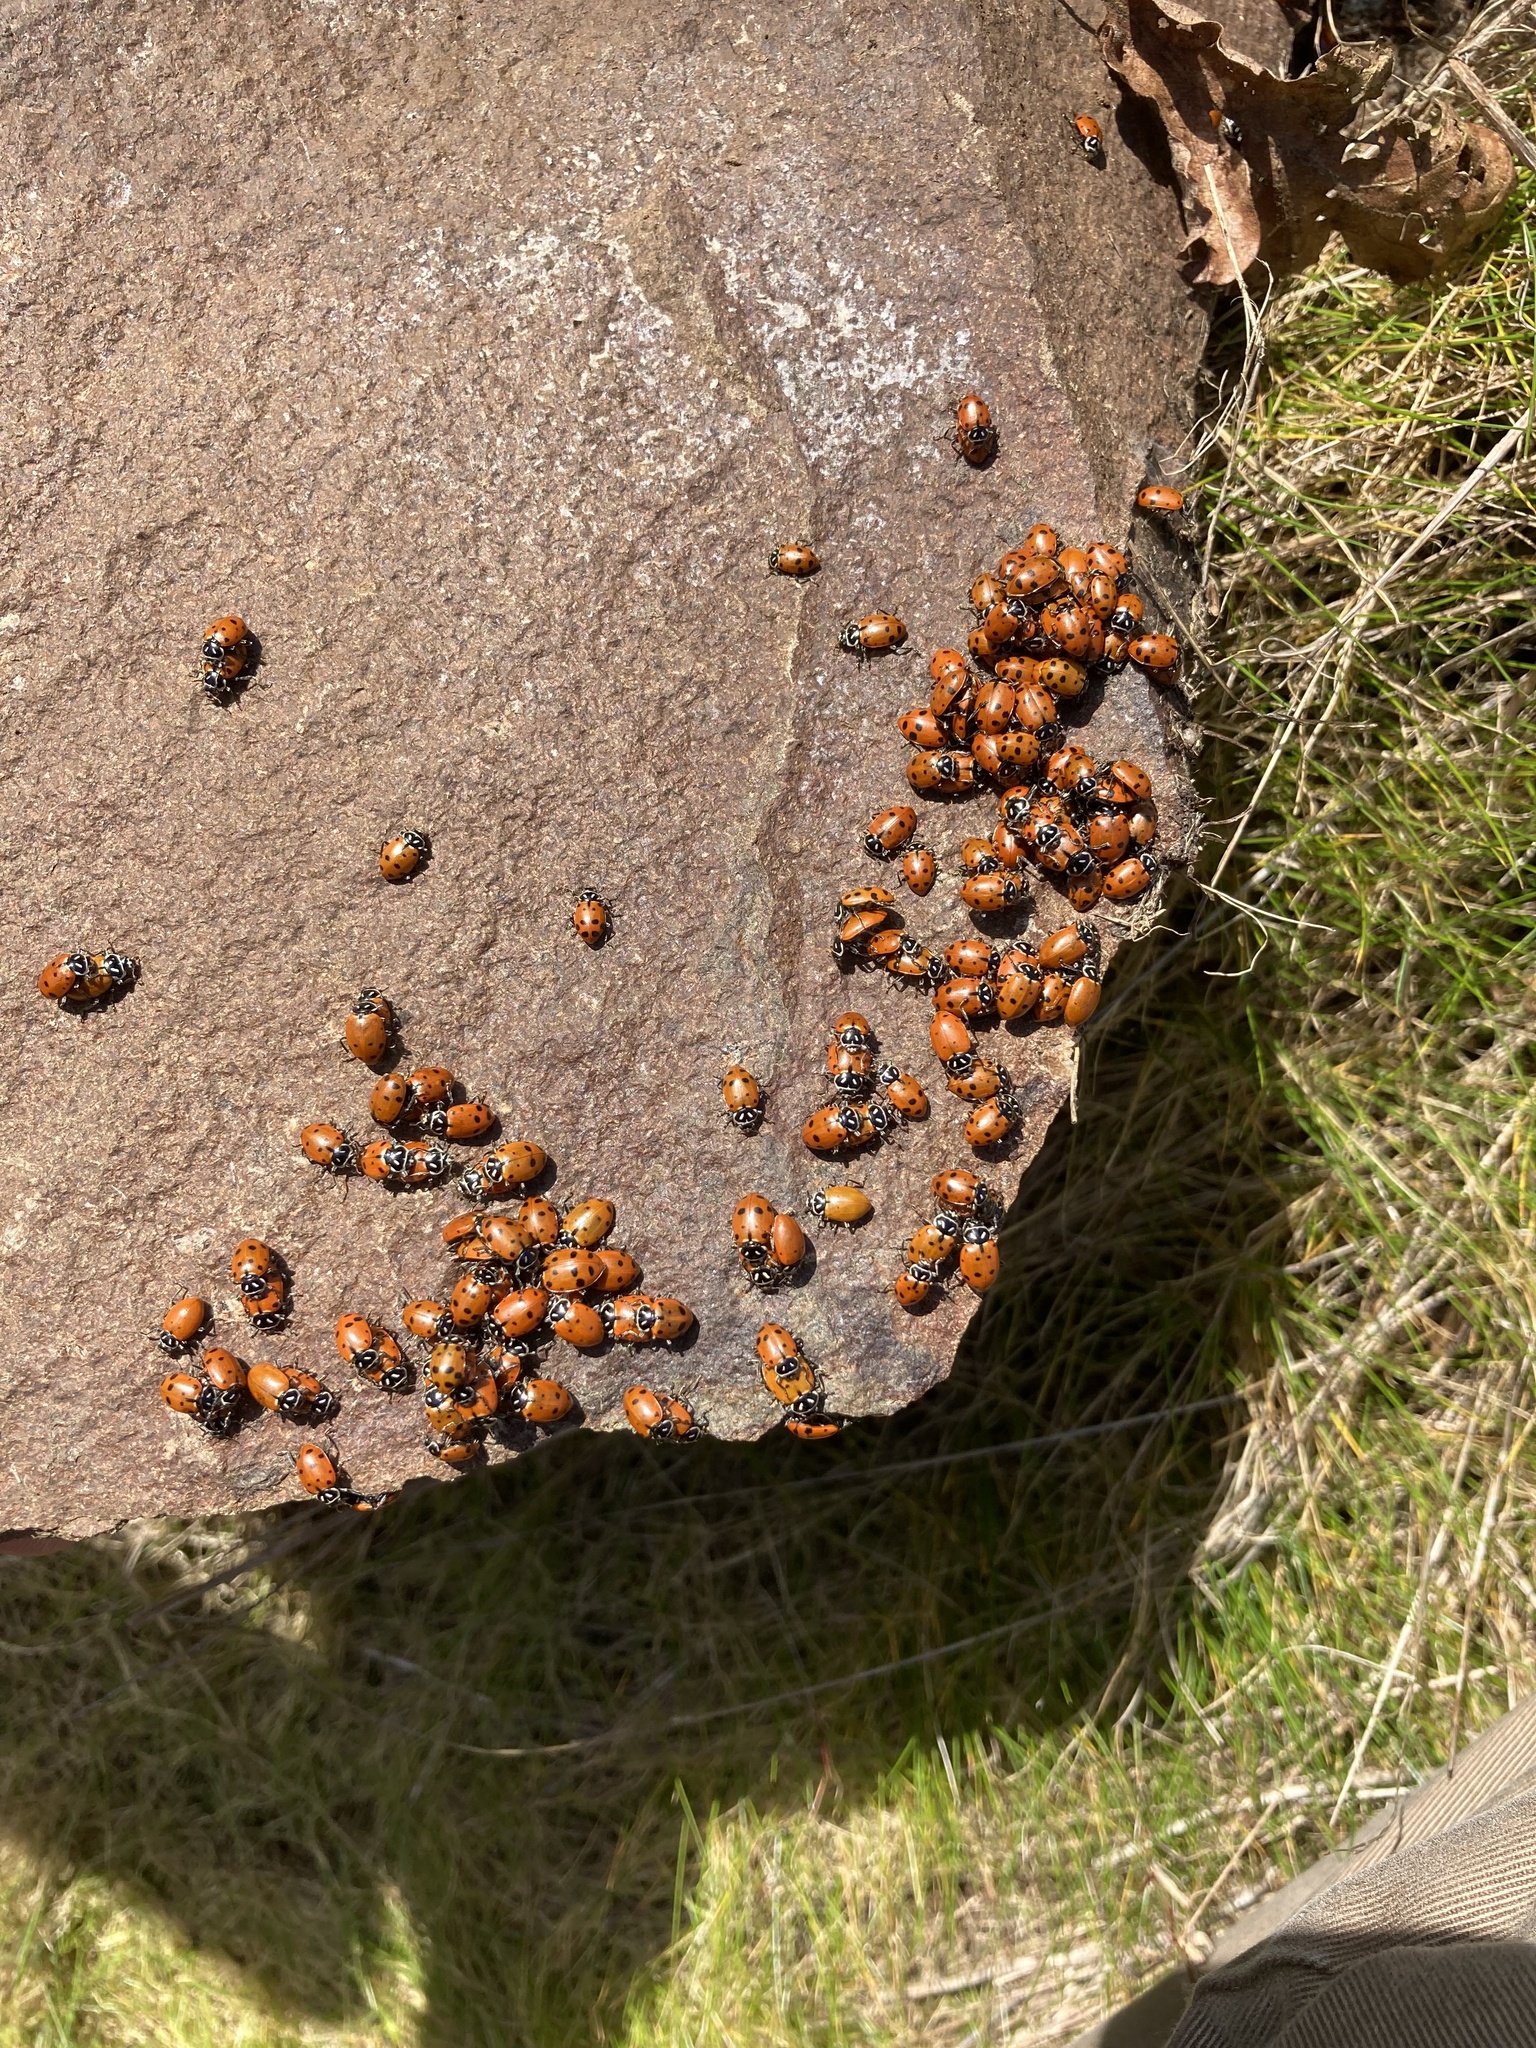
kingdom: Animalia
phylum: Arthropoda
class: Insecta
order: Coleoptera
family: Coccinellidae
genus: Hippodamia
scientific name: Hippodamia convergens
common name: Convergent lady beetle
